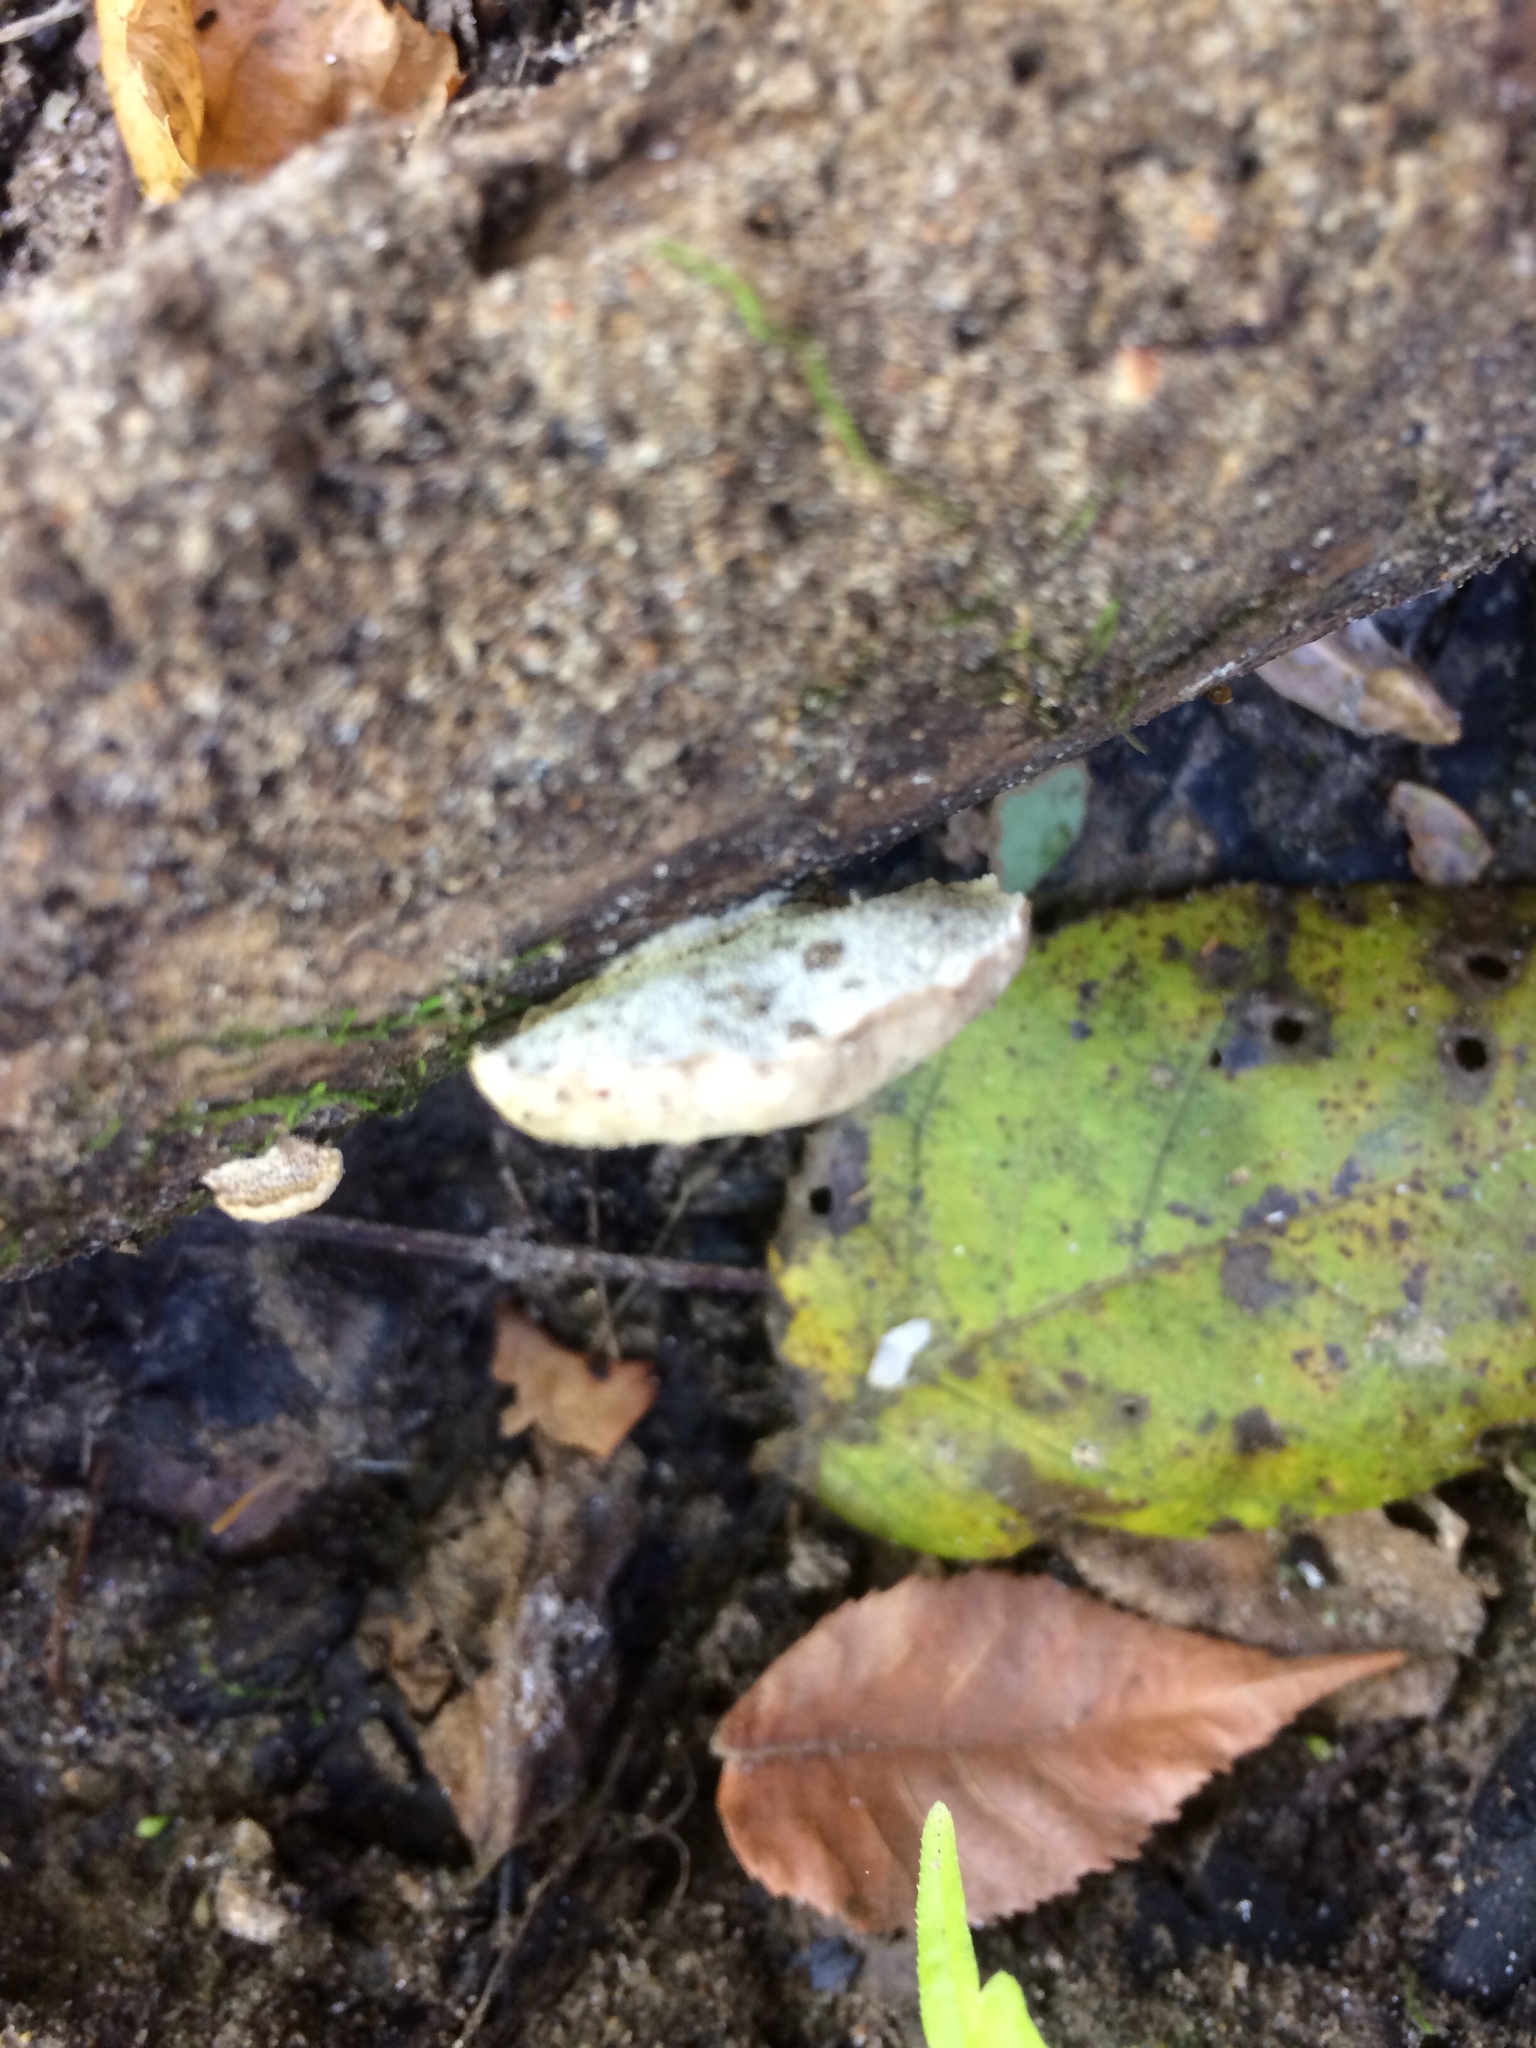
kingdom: Fungi
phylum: Basidiomycota
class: Agaricomycetes
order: Polyporales
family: Polyporaceae
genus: Cyanosporus
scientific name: Cyanosporus livens
